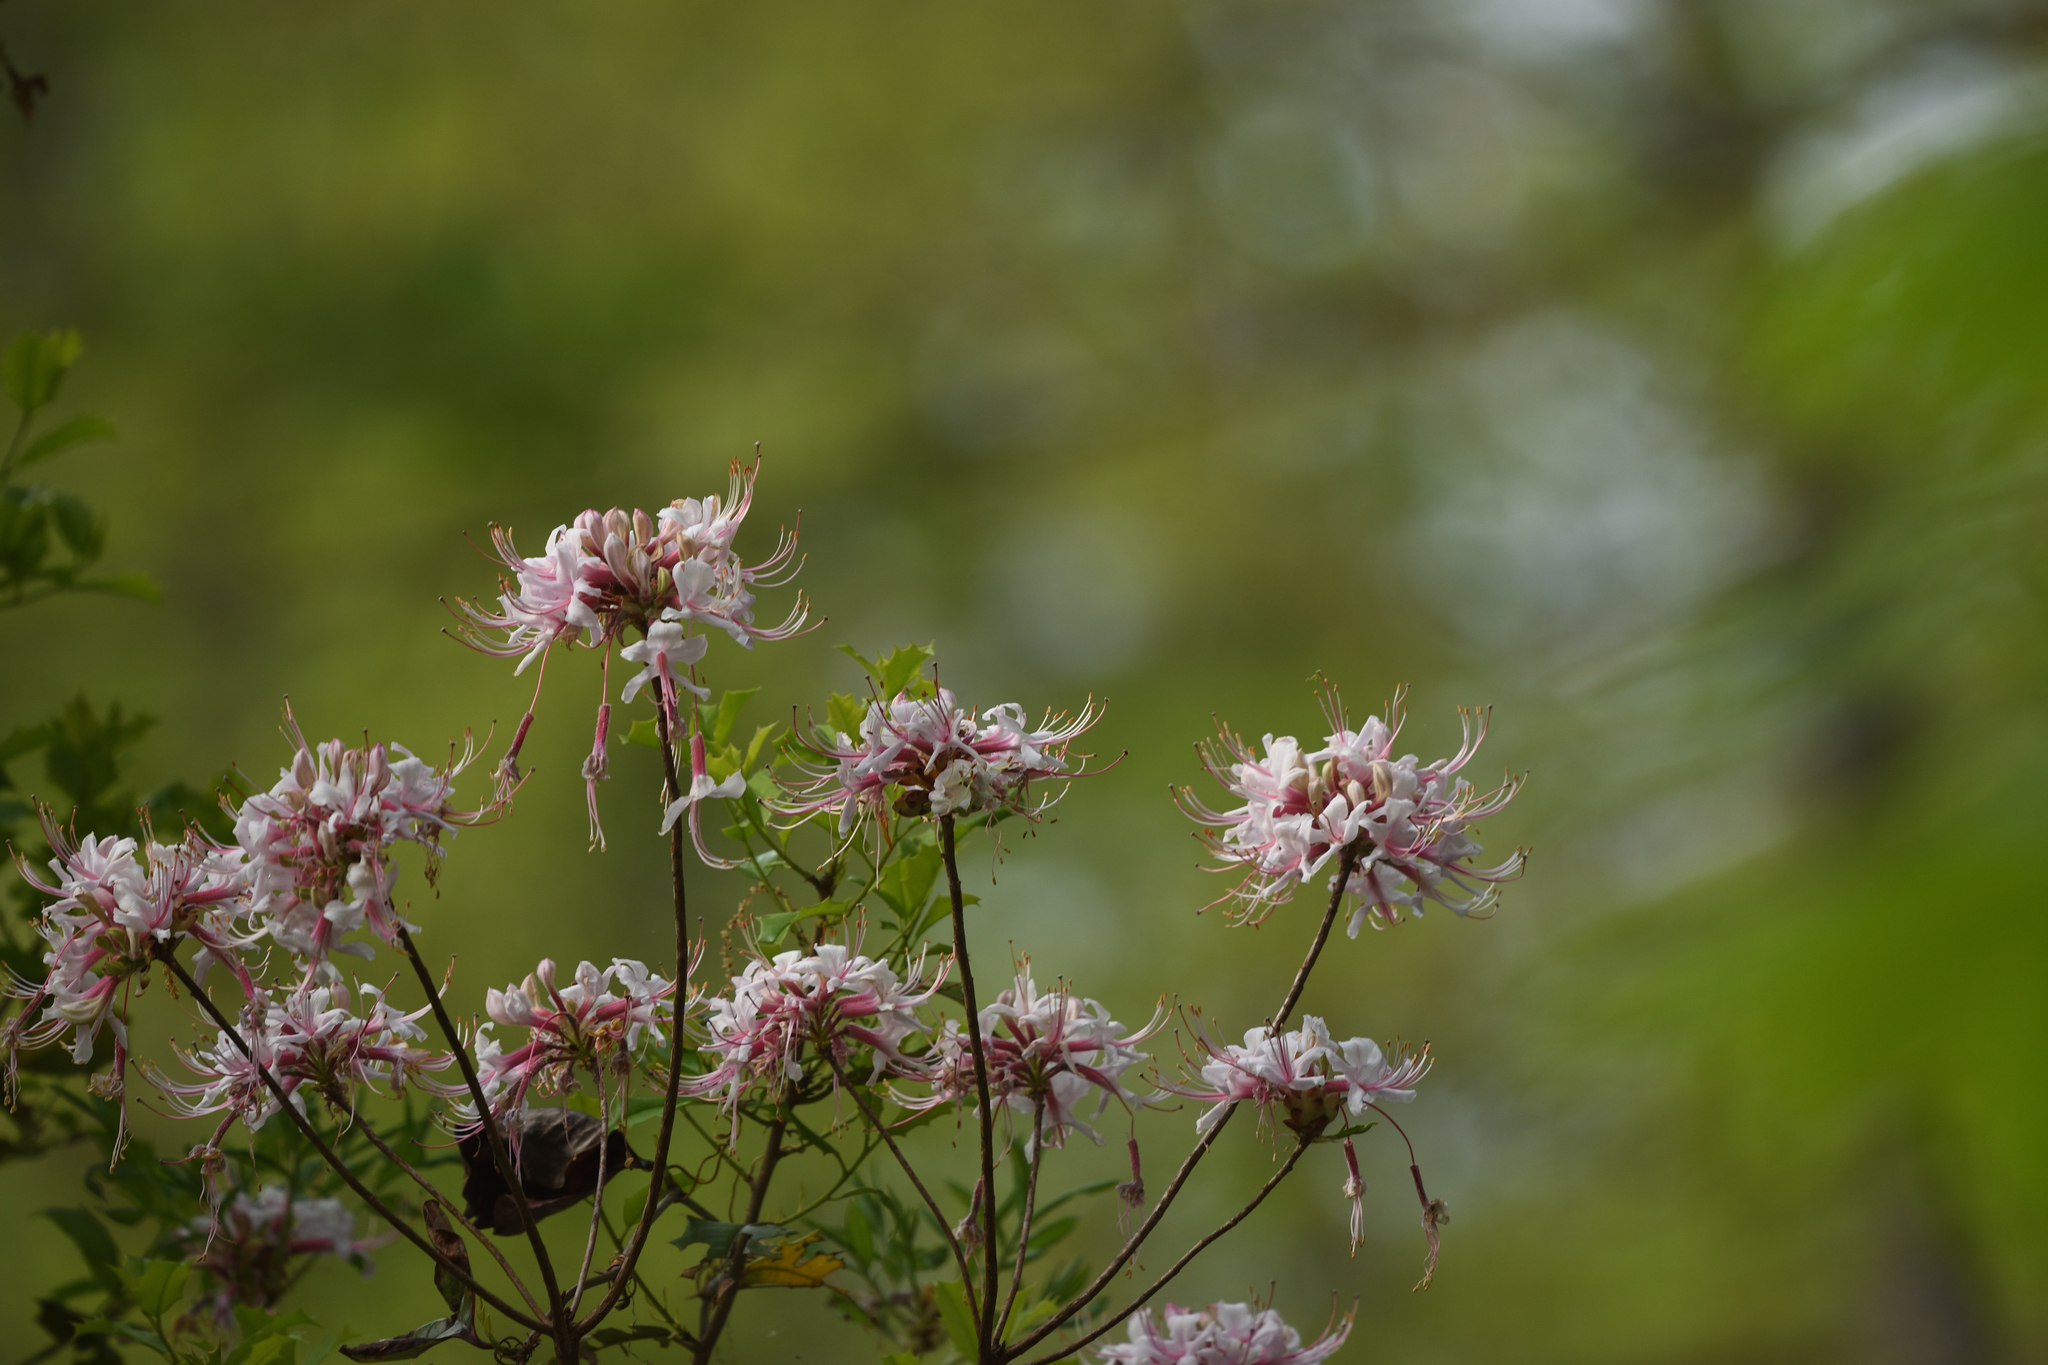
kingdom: Plantae
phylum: Tracheophyta
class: Magnoliopsida
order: Ericales
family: Ericaceae
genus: Rhododendron
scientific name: Rhododendron periclymenoides
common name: Election-pink
